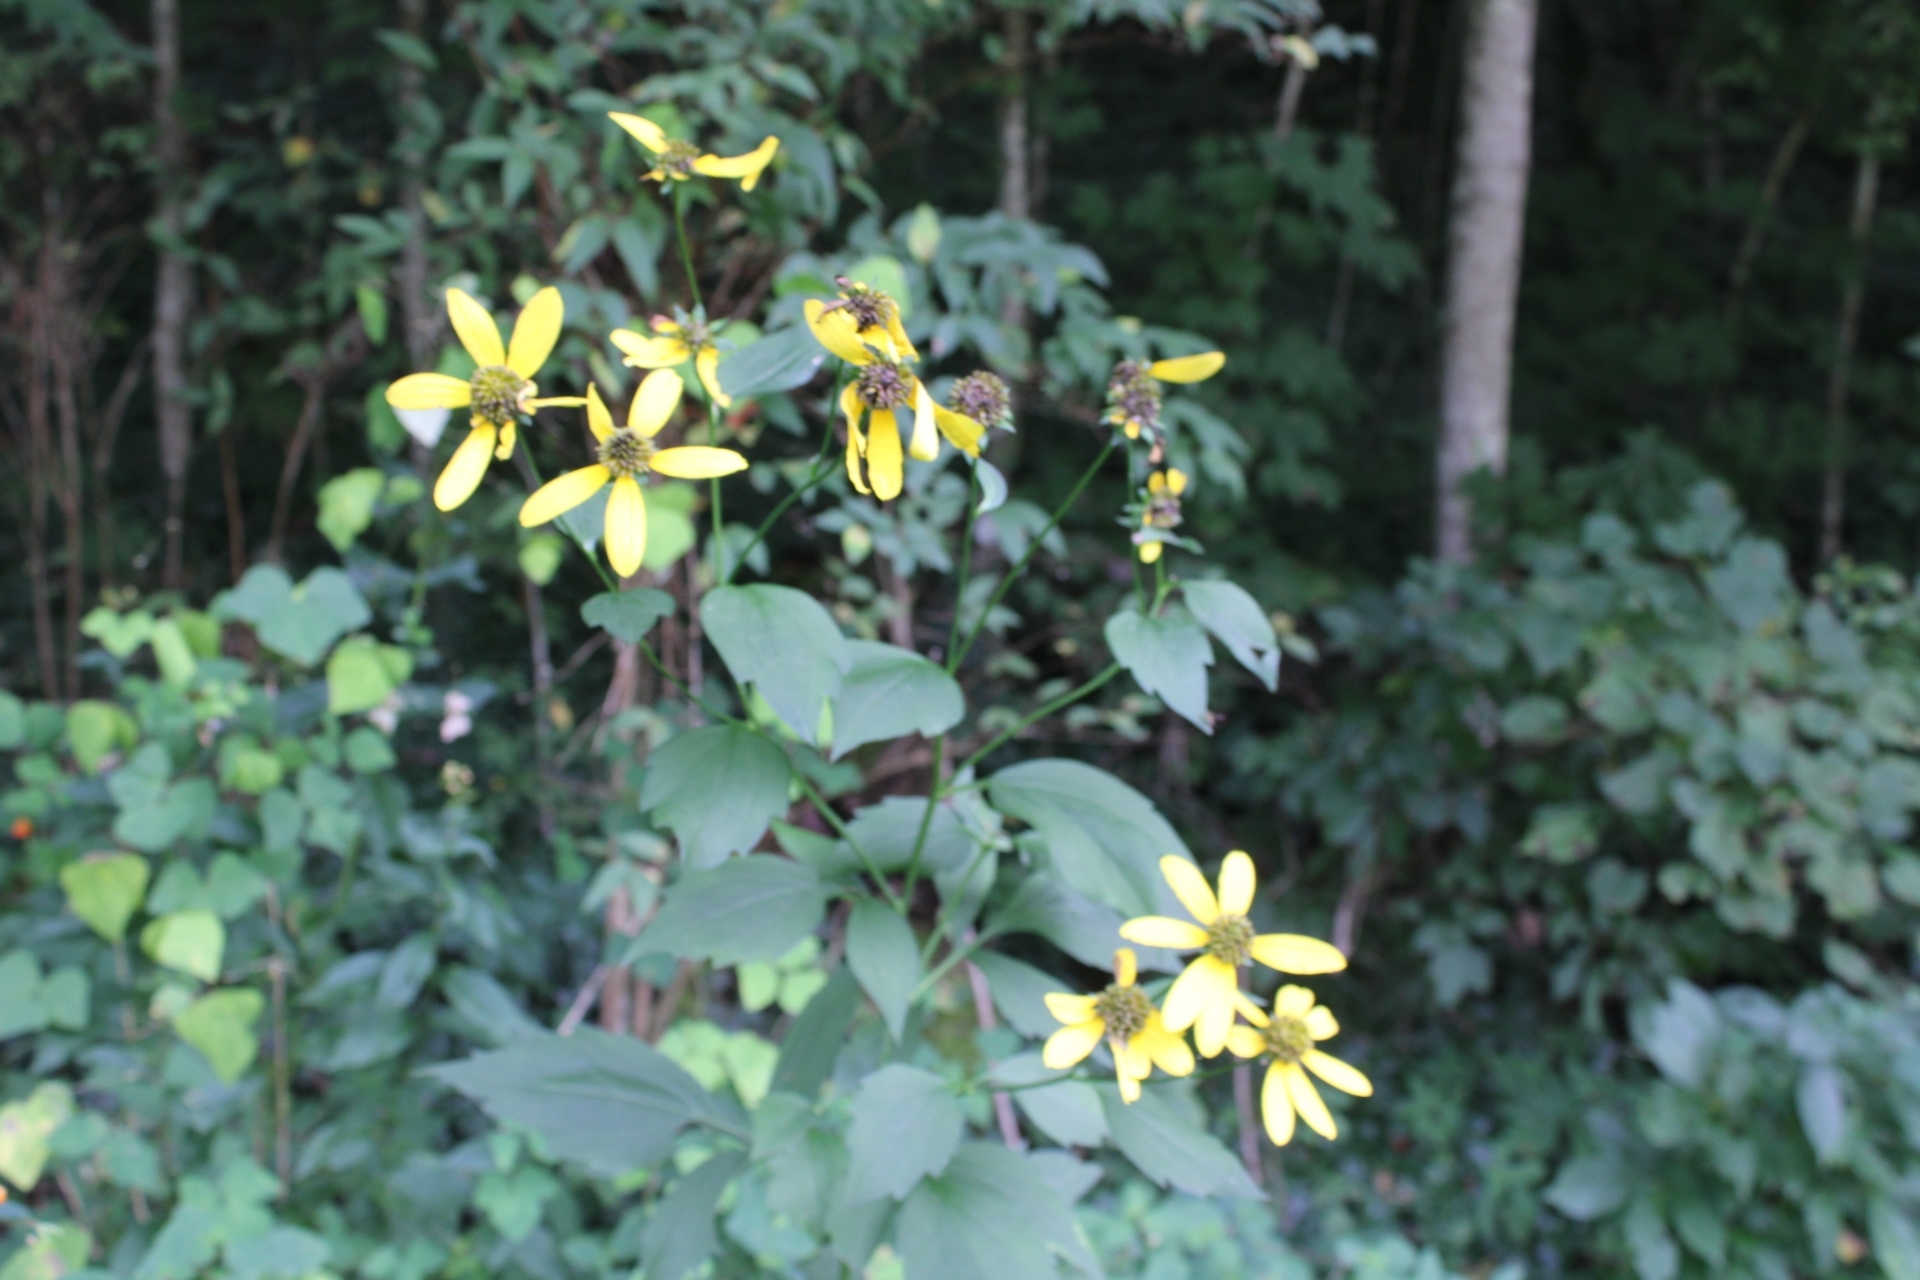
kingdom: Plantae
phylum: Tracheophyta
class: Magnoliopsida
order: Asterales
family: Asteraceae
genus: Rudbeckia
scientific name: Rudbeckia laciniata
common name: Coneflower
